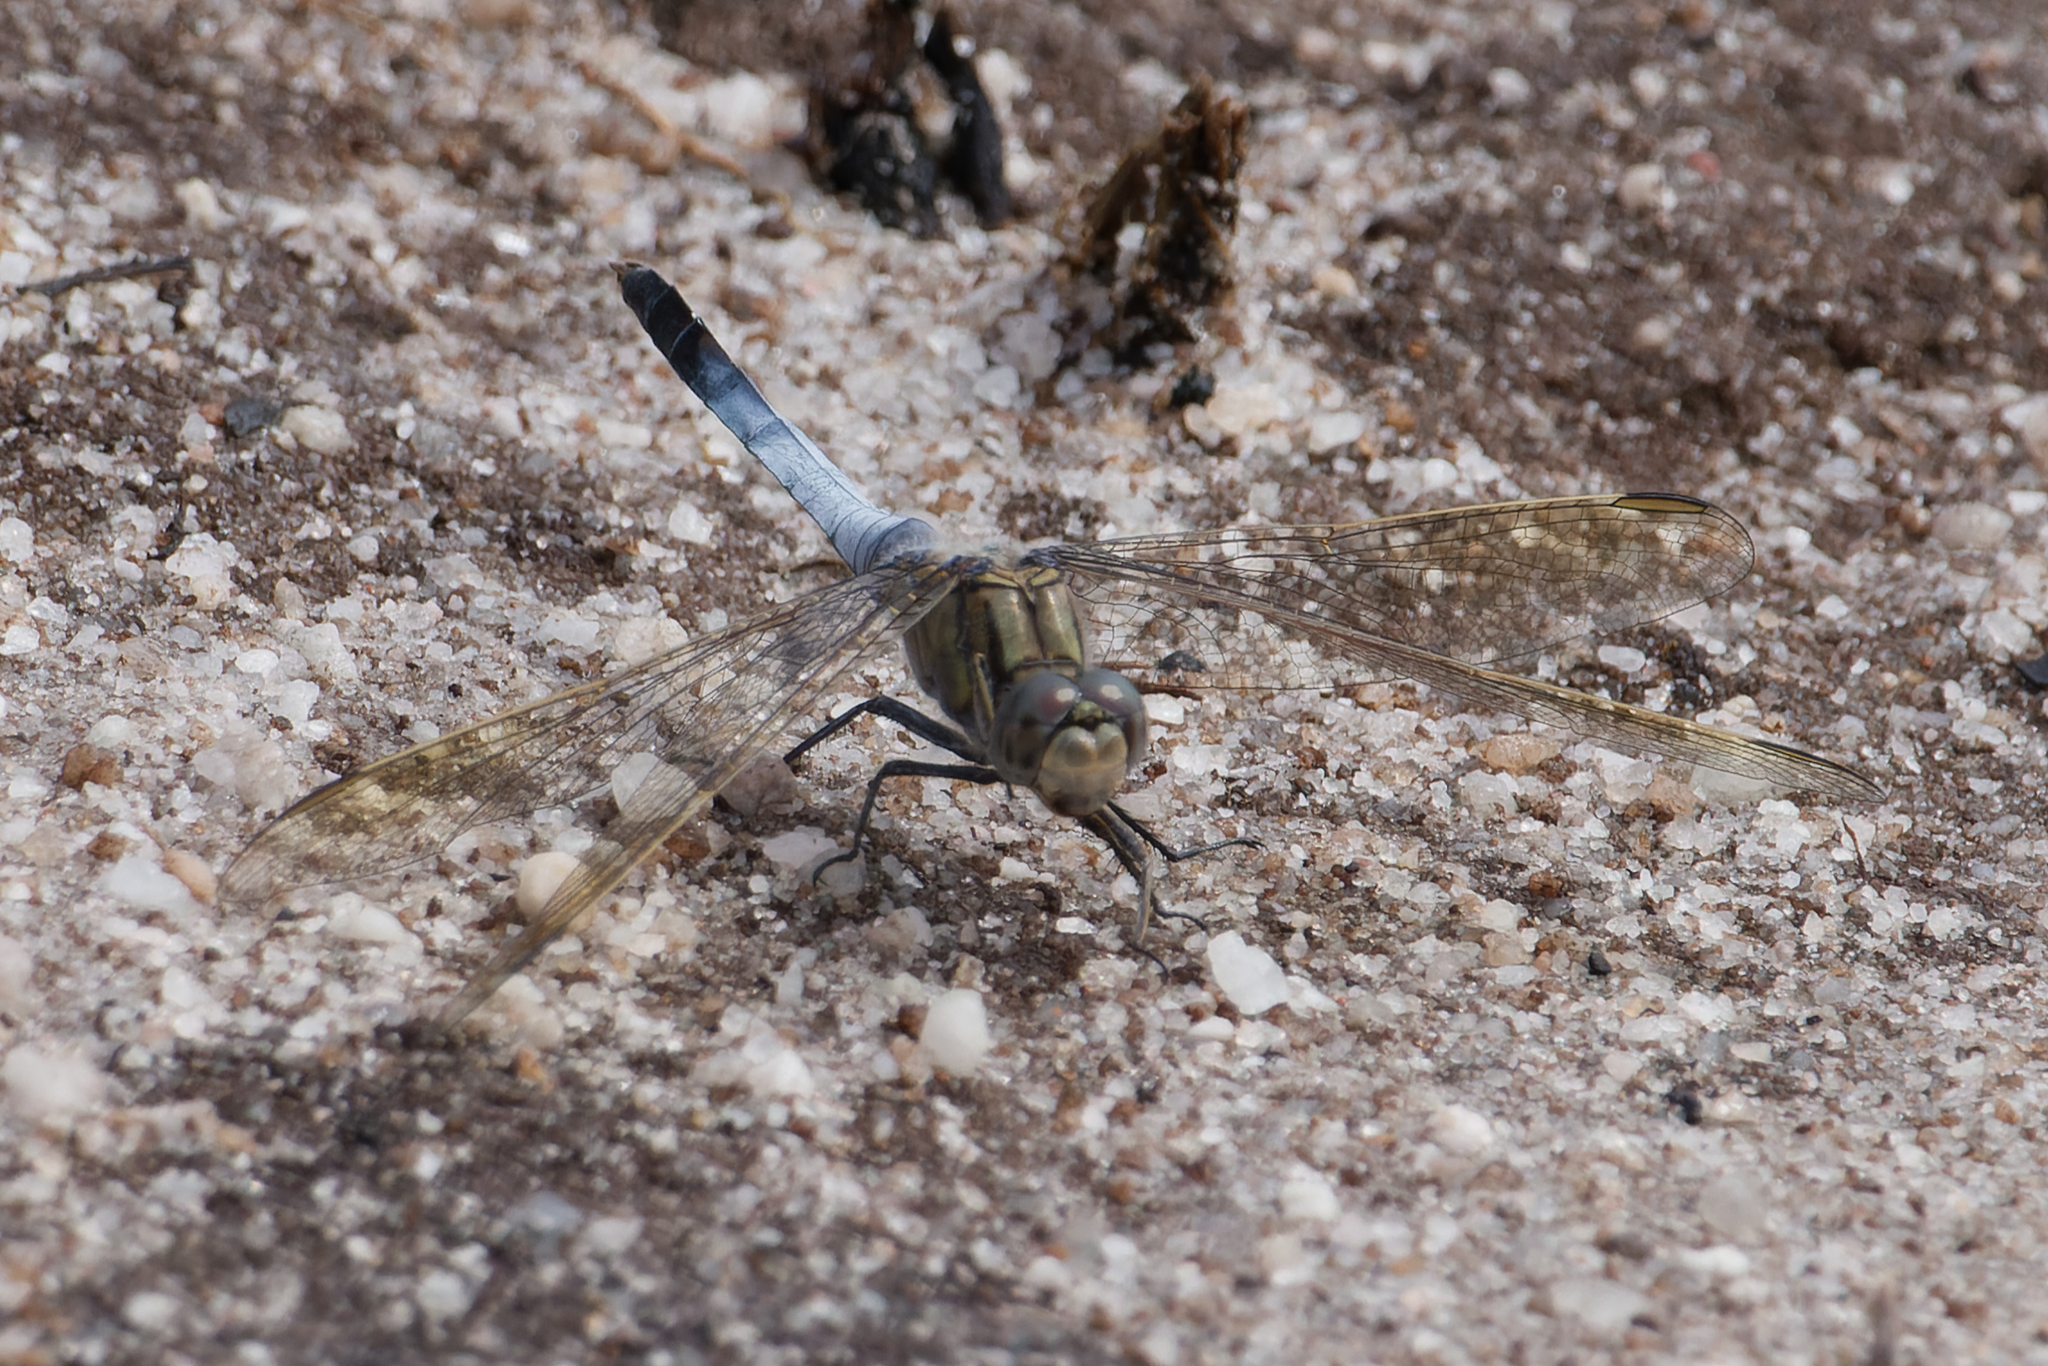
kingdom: Animalia
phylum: Arthropoda
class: Insecta
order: Odonata
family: Libellulidae
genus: Orthetrum
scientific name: Orthetrum caledonicum
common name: Blue skimmer
